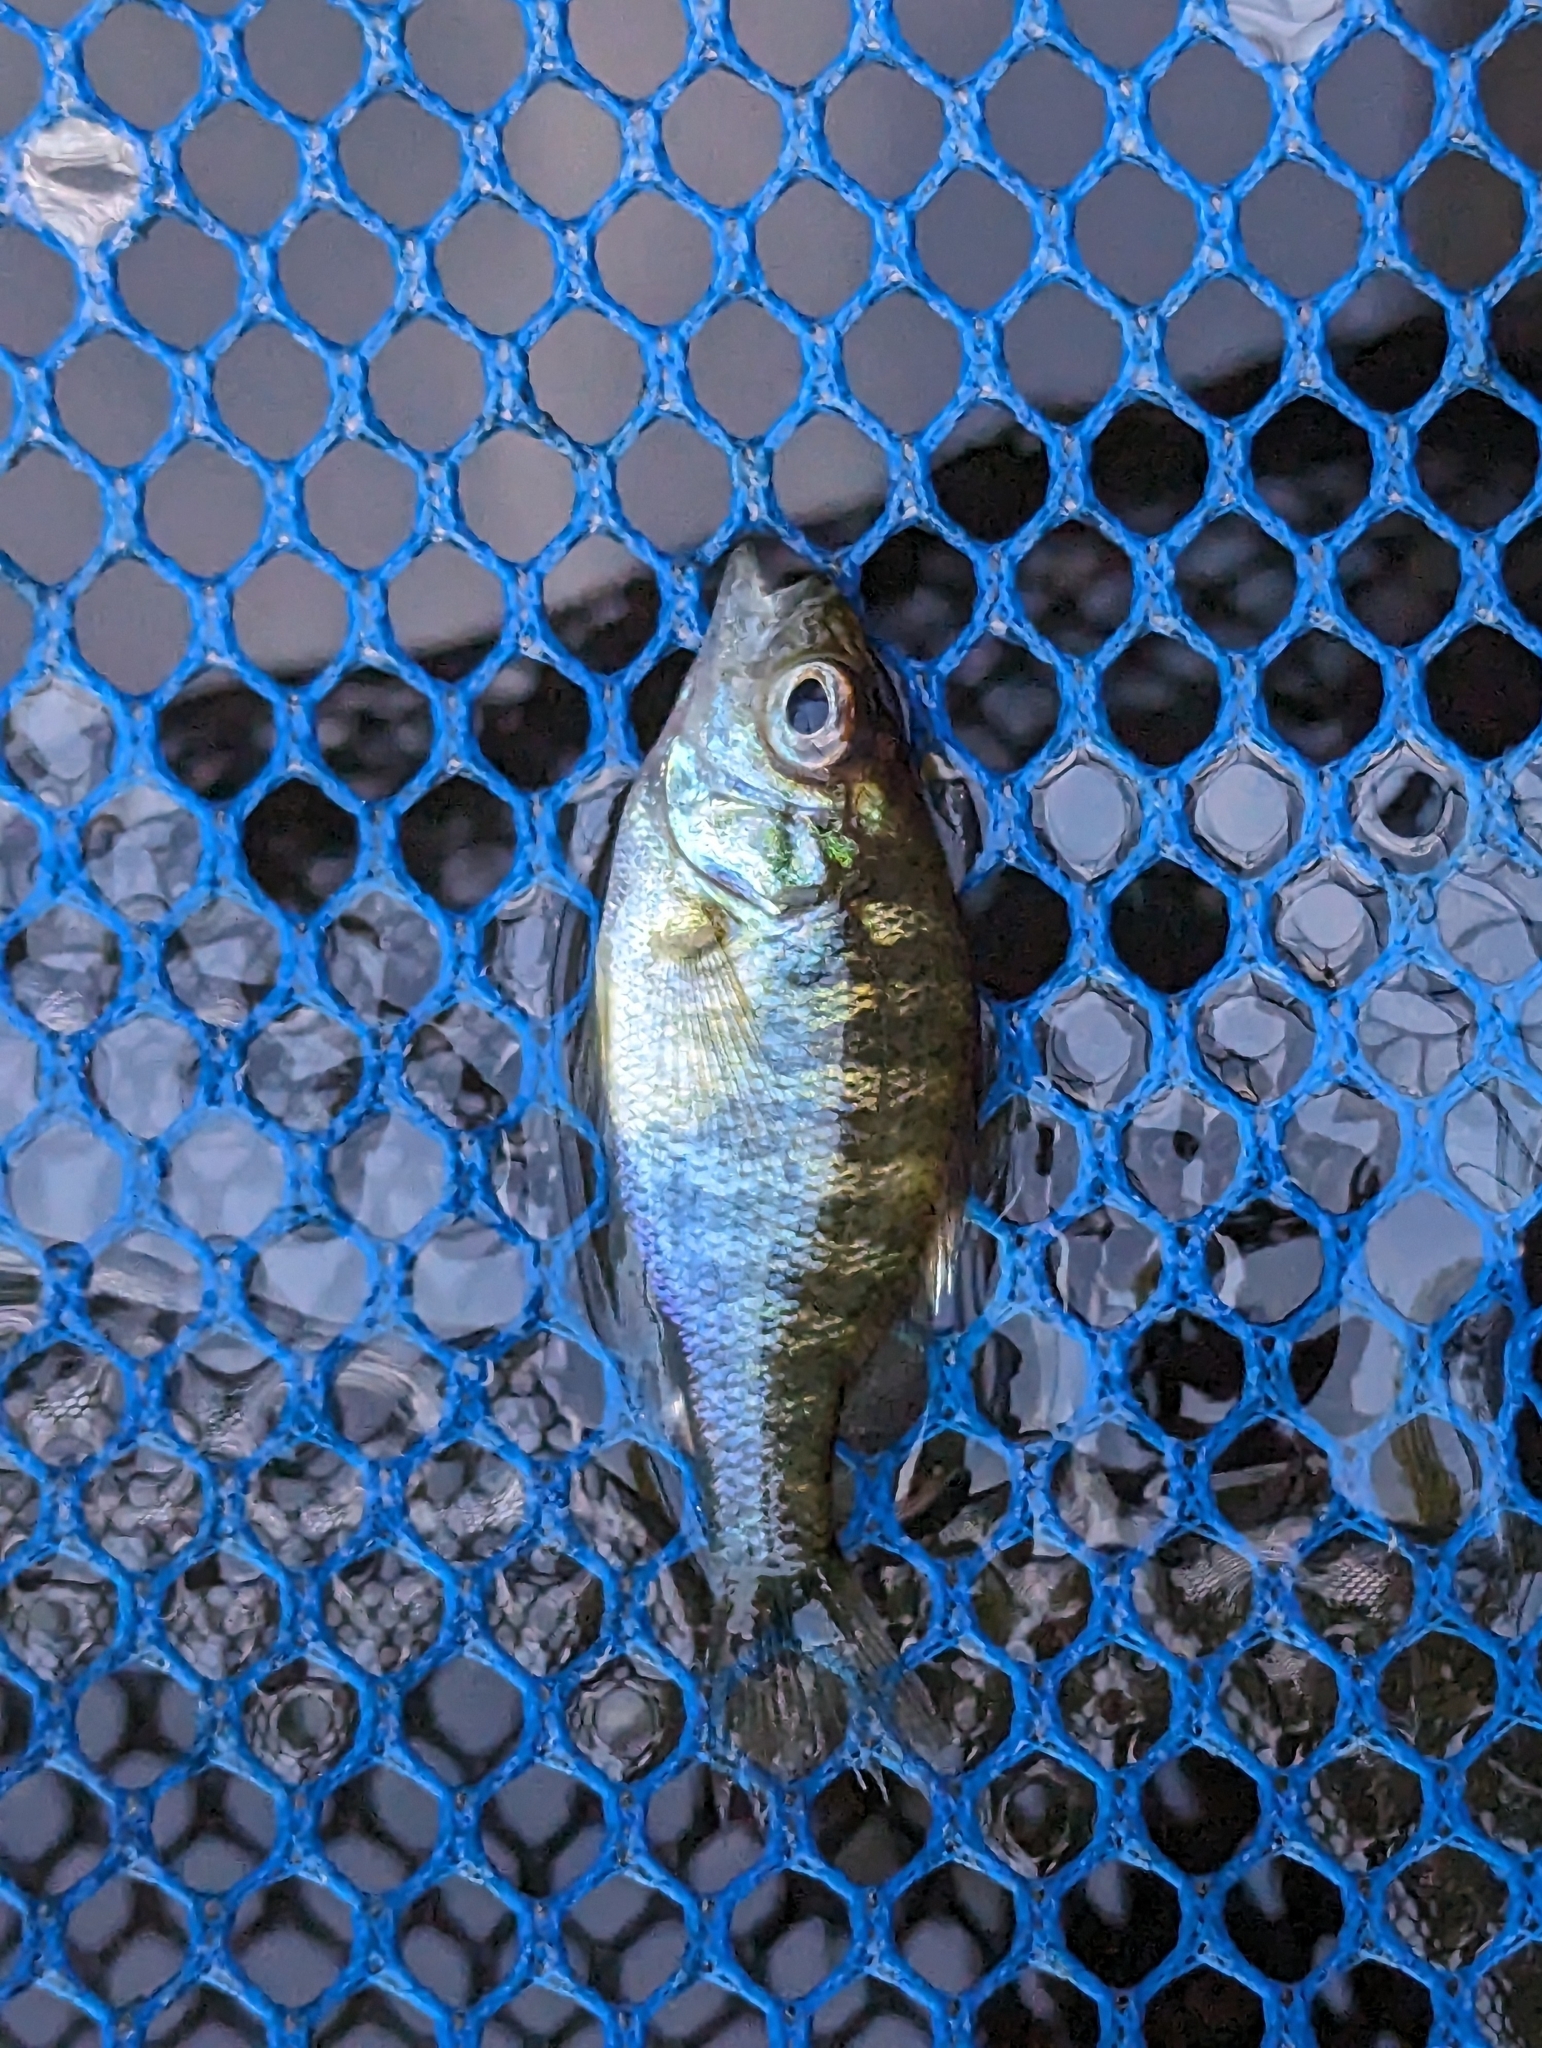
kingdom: Animalia
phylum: Chordata
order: Perciformes
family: Centrarchidae
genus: Lepomis
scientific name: Lepomis gibbosus
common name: Pumpkinseed
